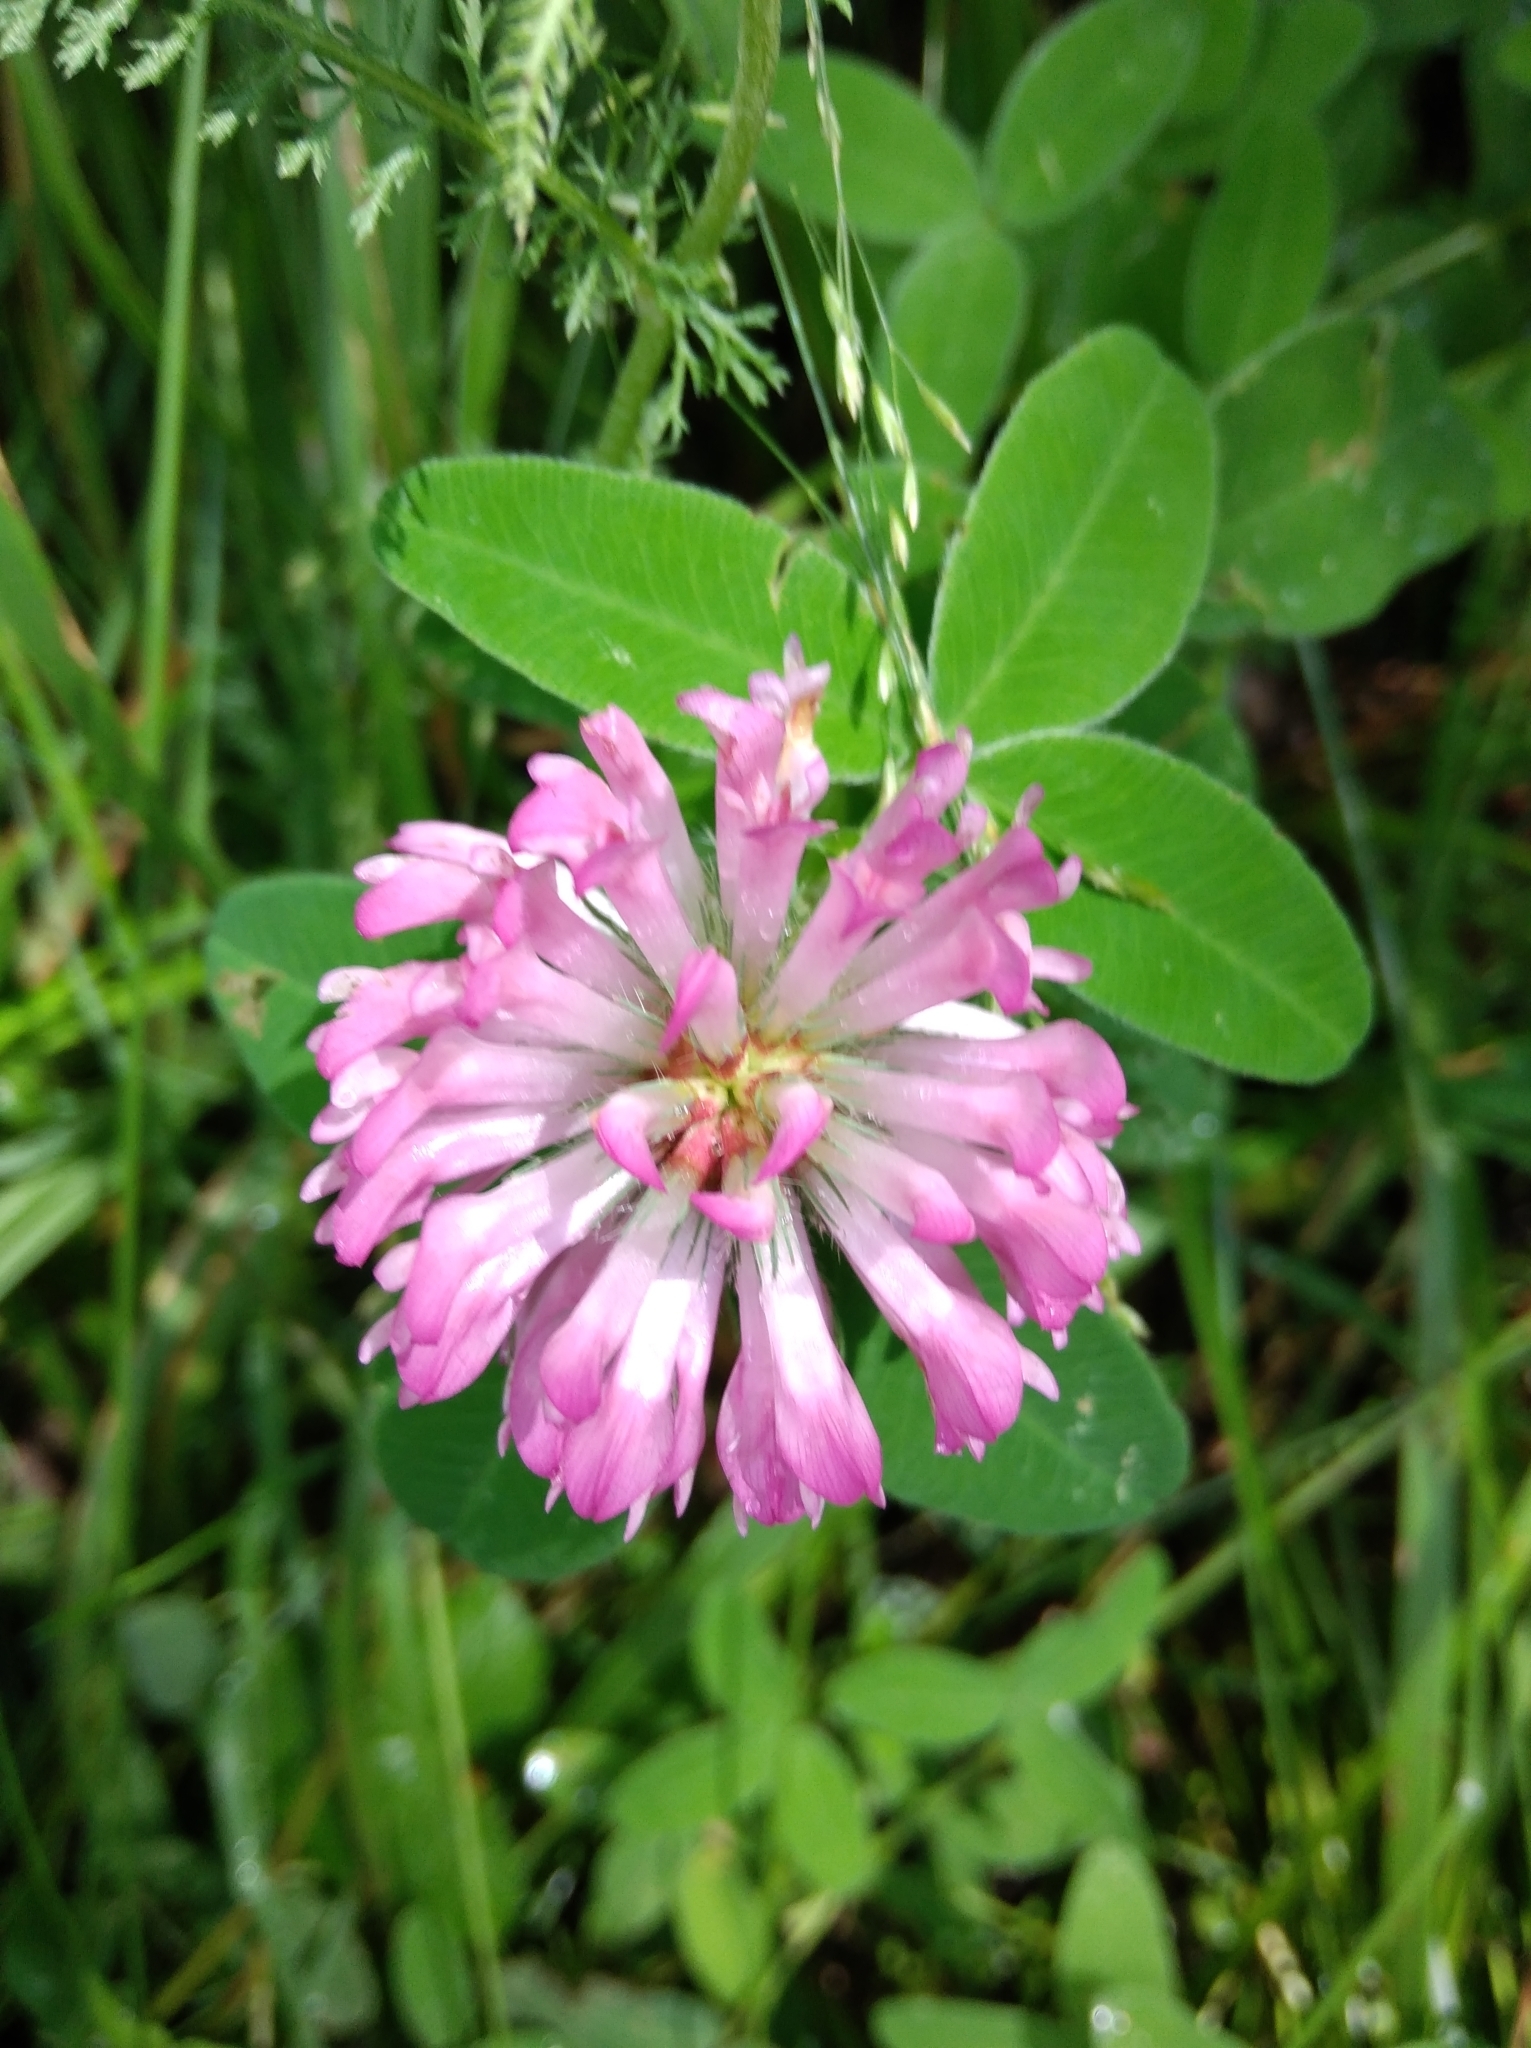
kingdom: Plantae
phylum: Tracheophyta
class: Magnoliopsida
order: Fabales
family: Fabaceae
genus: Trifolium
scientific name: Trifolium medium
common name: Zigzag clover
